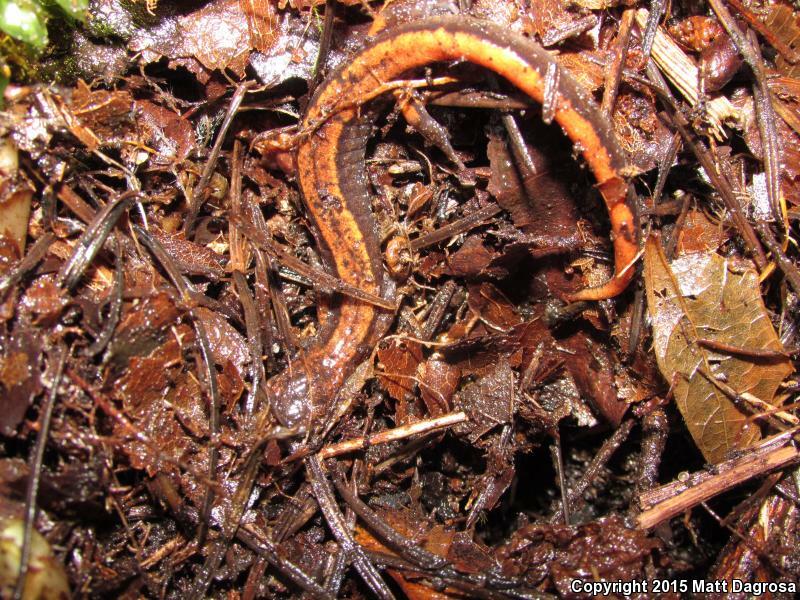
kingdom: Animalia
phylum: Chordata
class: Amphibia
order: Caudata
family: Plethodontidae
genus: Plethodon
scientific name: Plethodon vehiculum
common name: Western red-backed salamander
